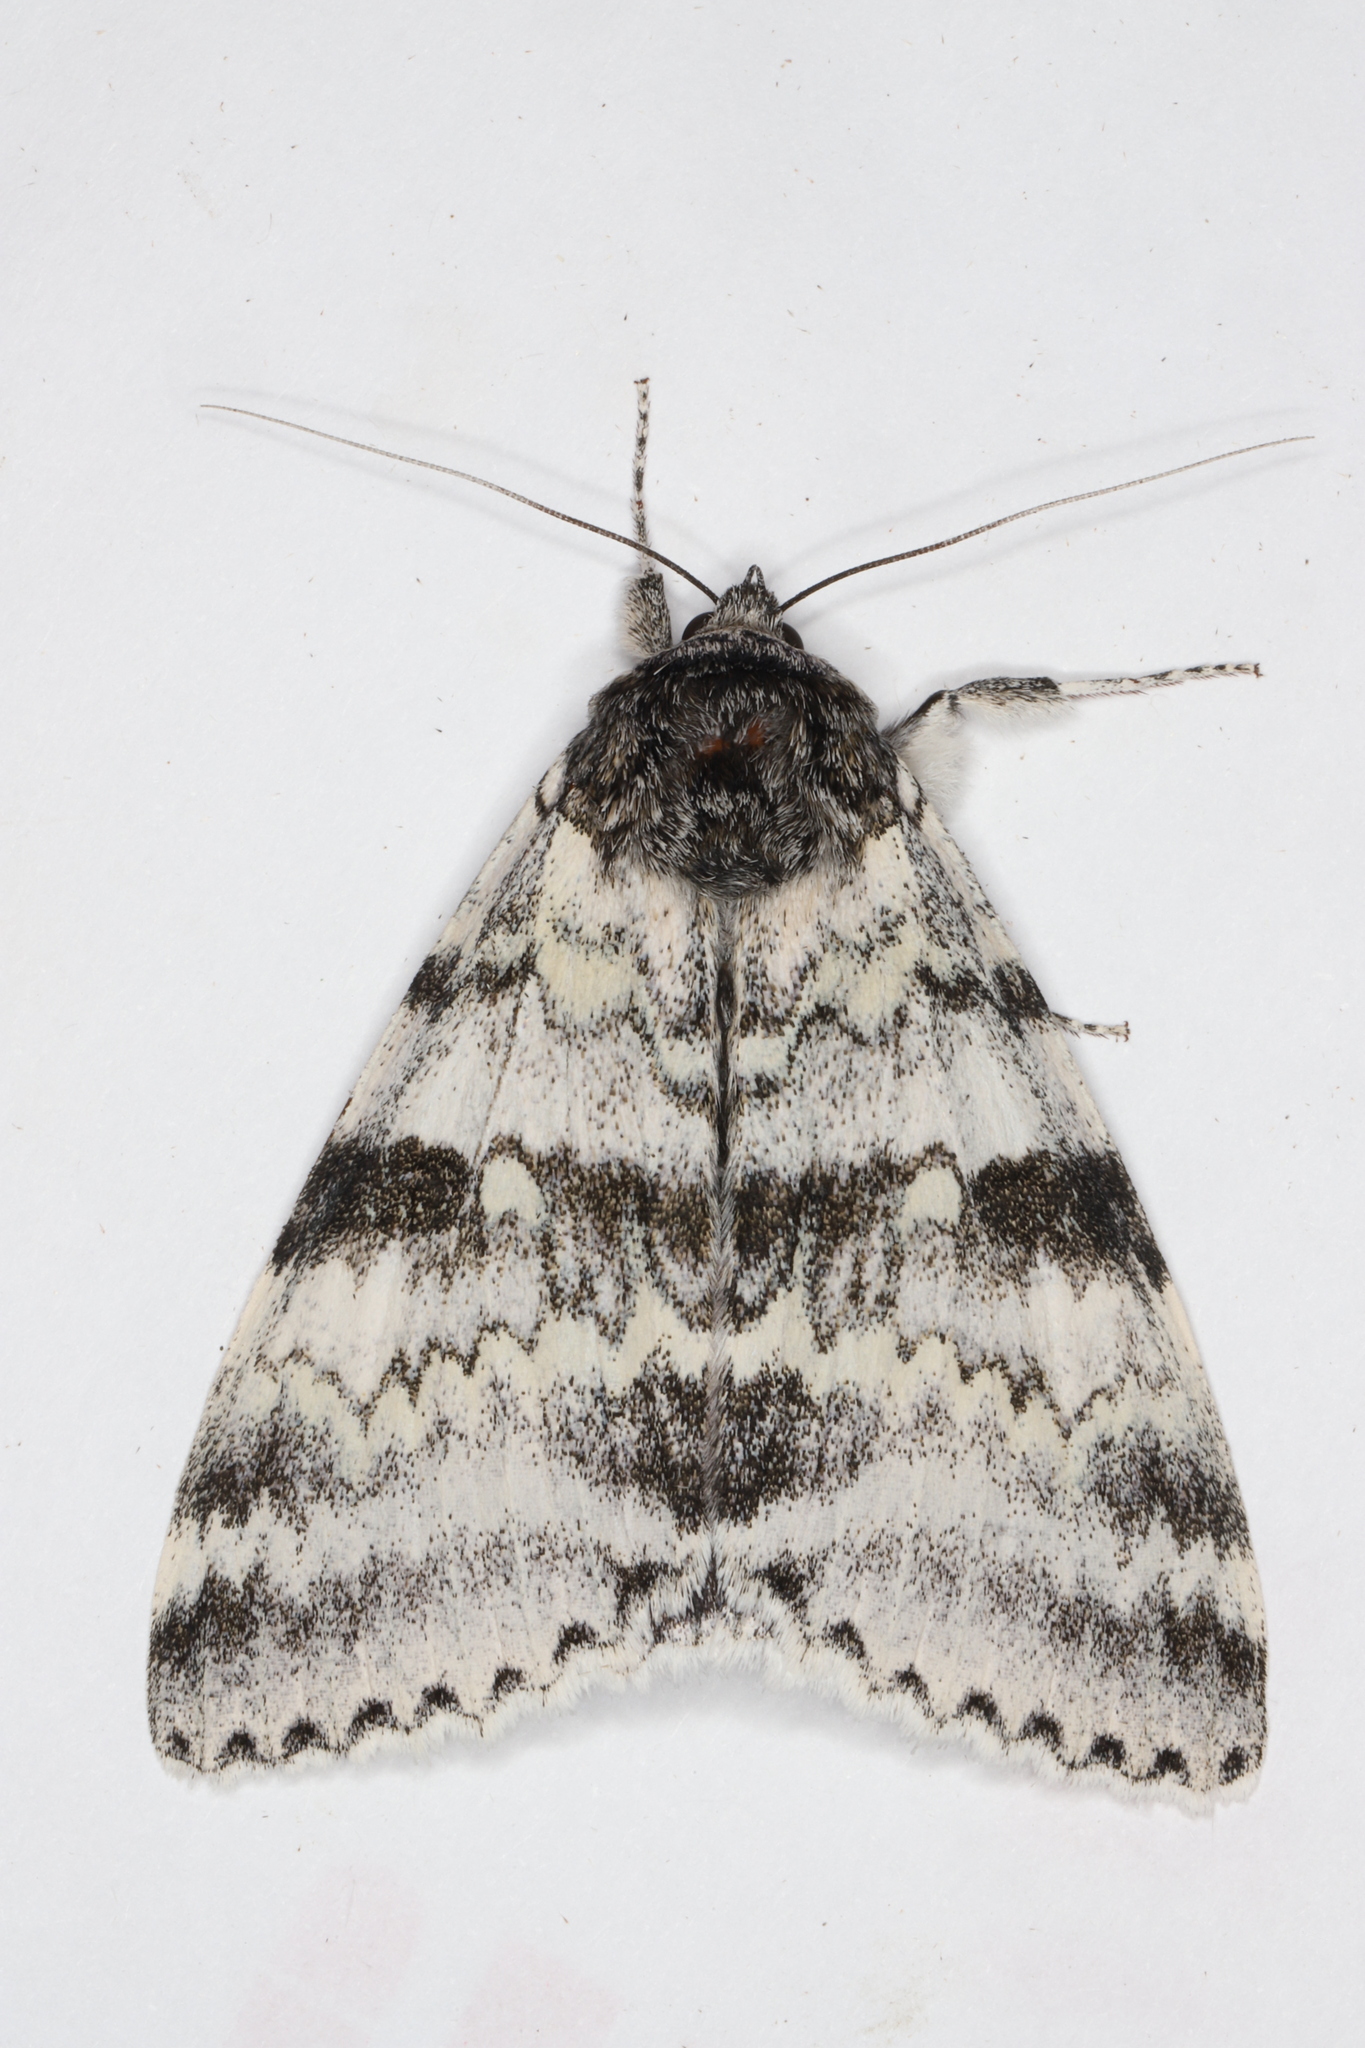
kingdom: Animalia
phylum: Arthropoda
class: Insecta
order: Lepidoptera
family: Erebidae
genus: Catocala
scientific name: Catocala relicta
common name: White underwing
